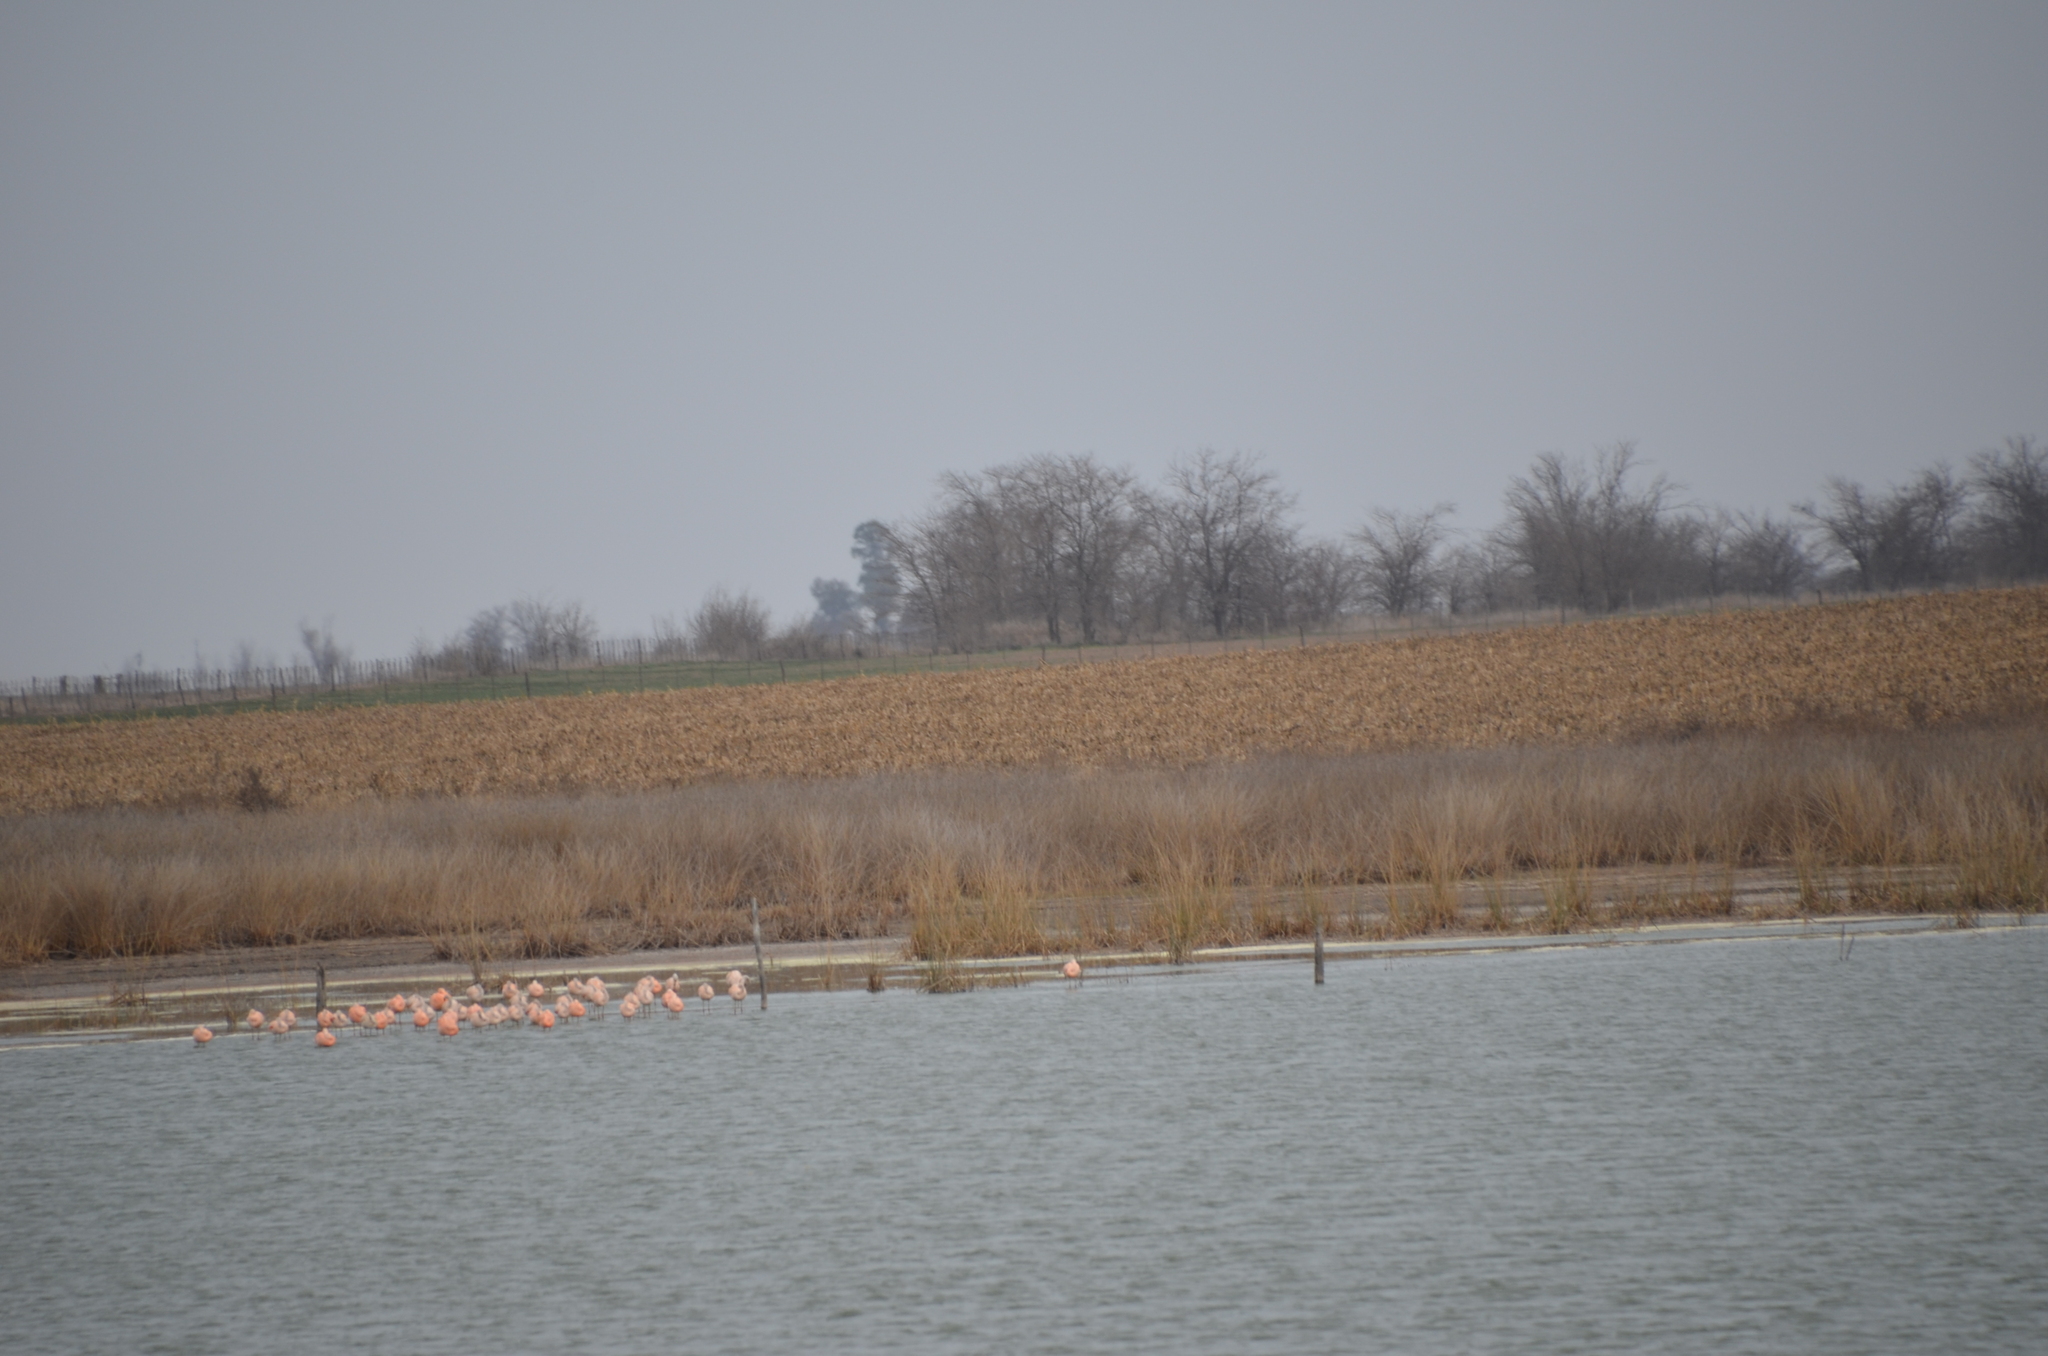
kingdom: Animalia
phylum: Chordata
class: Aves
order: Phoenicopteriformes
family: Phoenicopteridae
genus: Phoenicopterus
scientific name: Phoenicopterus chilensis
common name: Chilean flamingo
